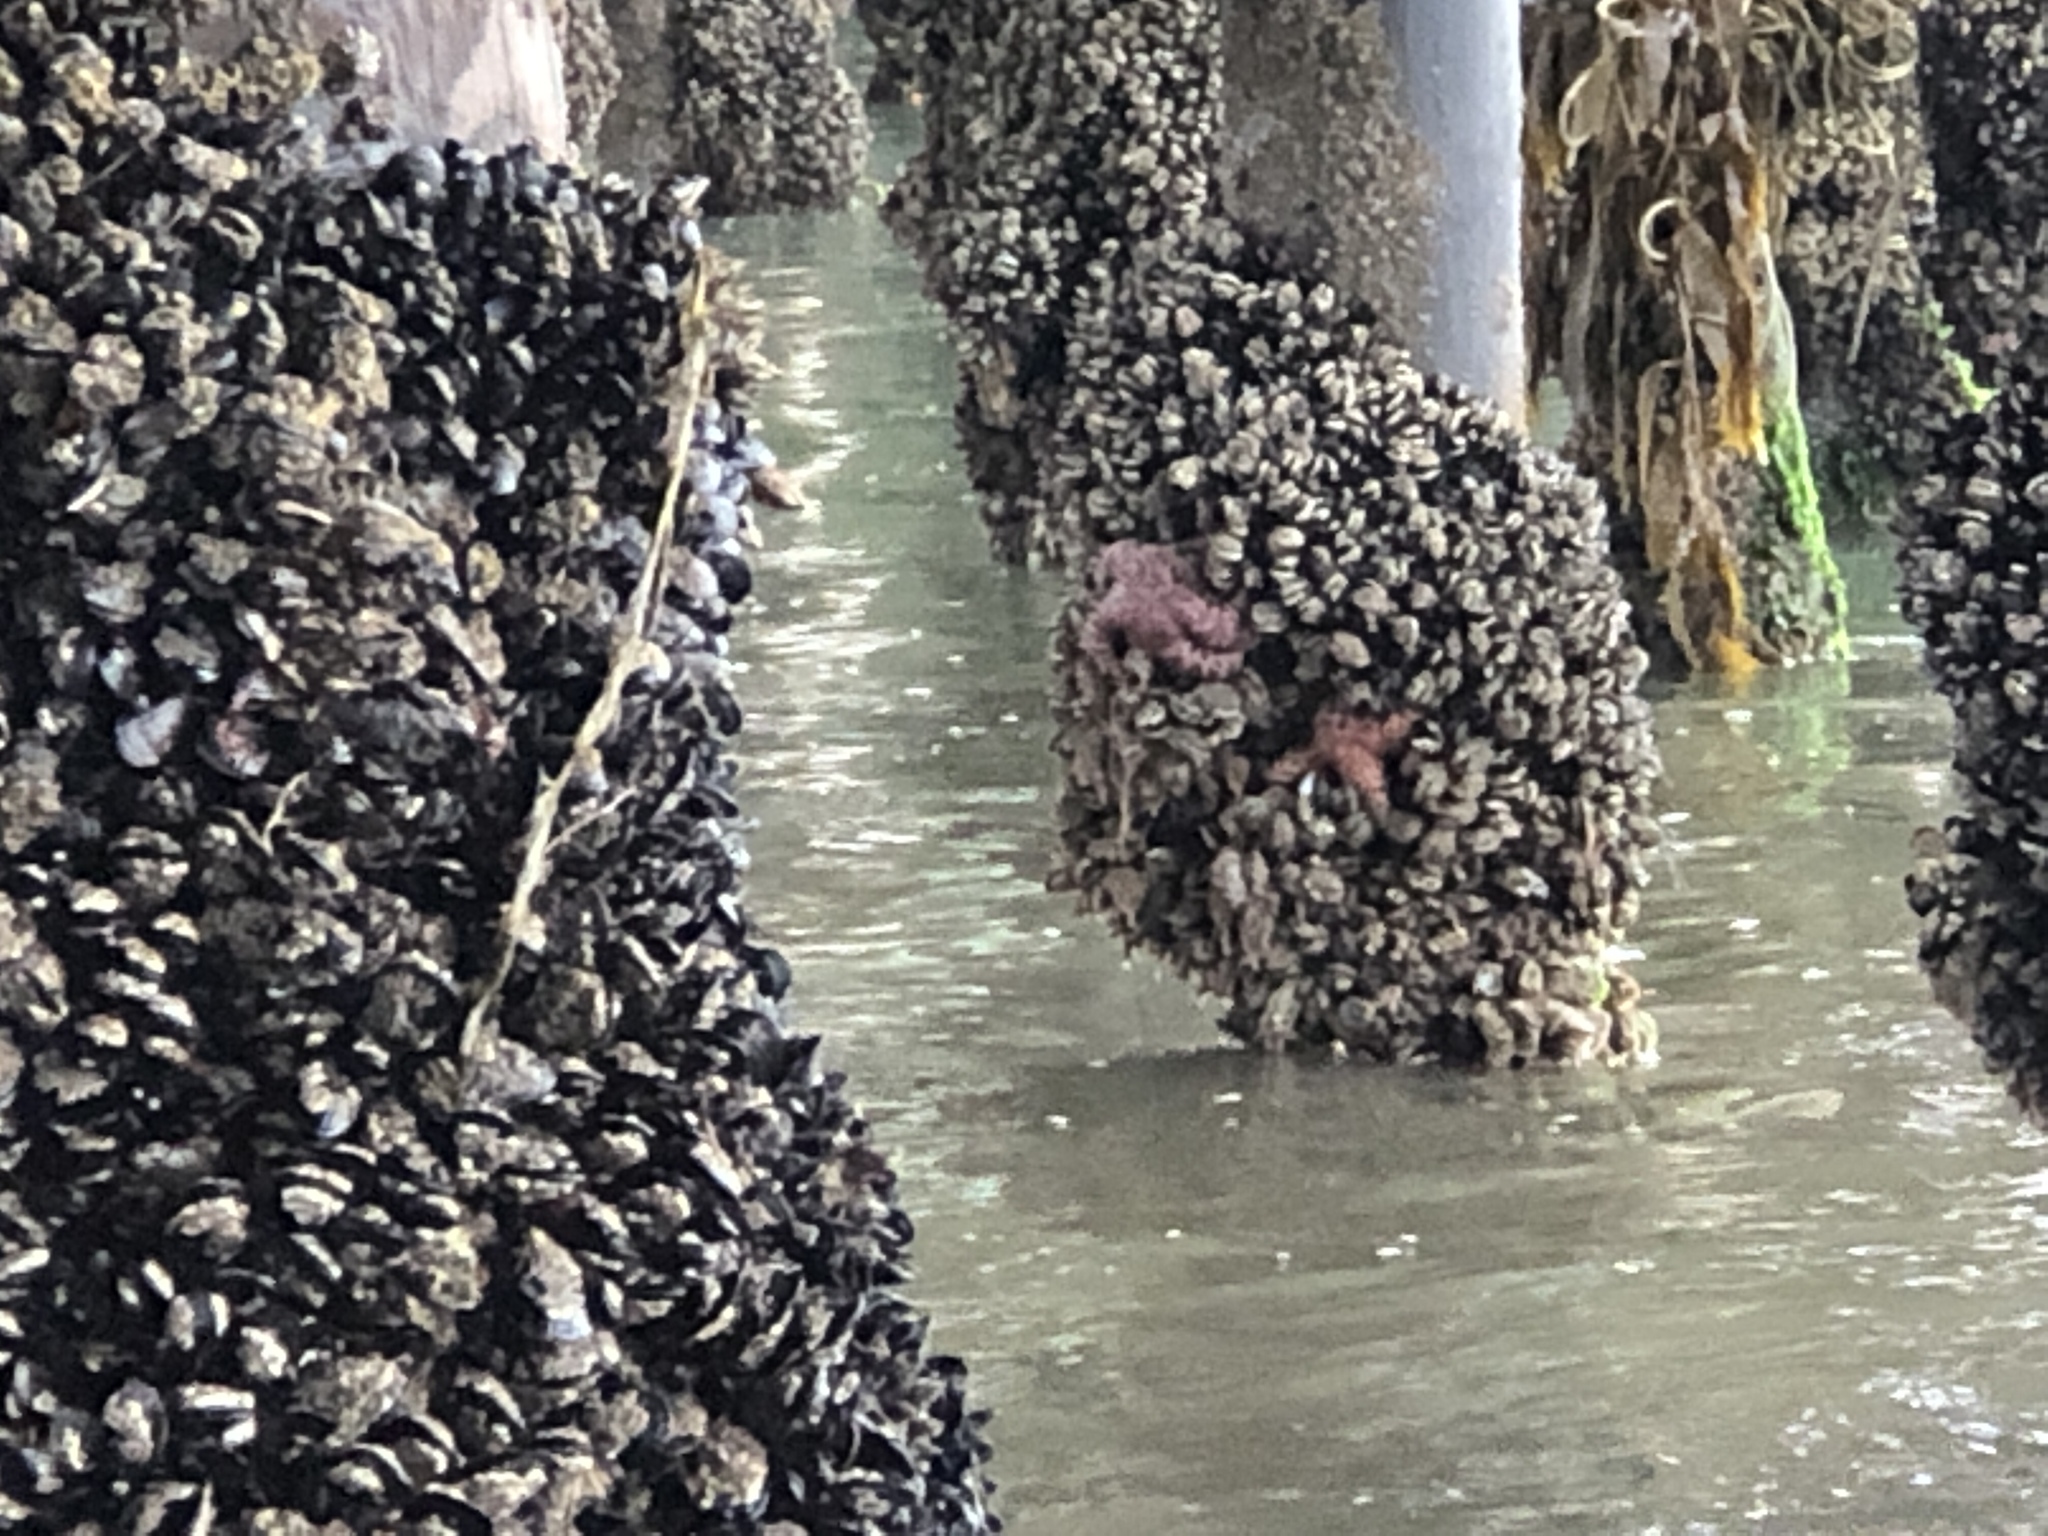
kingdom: Animalia
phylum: Echinodermata
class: Asteroidea
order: Forcipulatida
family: Asteriidae
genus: Pisaster
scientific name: Pisaster ochraceus
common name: Ochre stars
